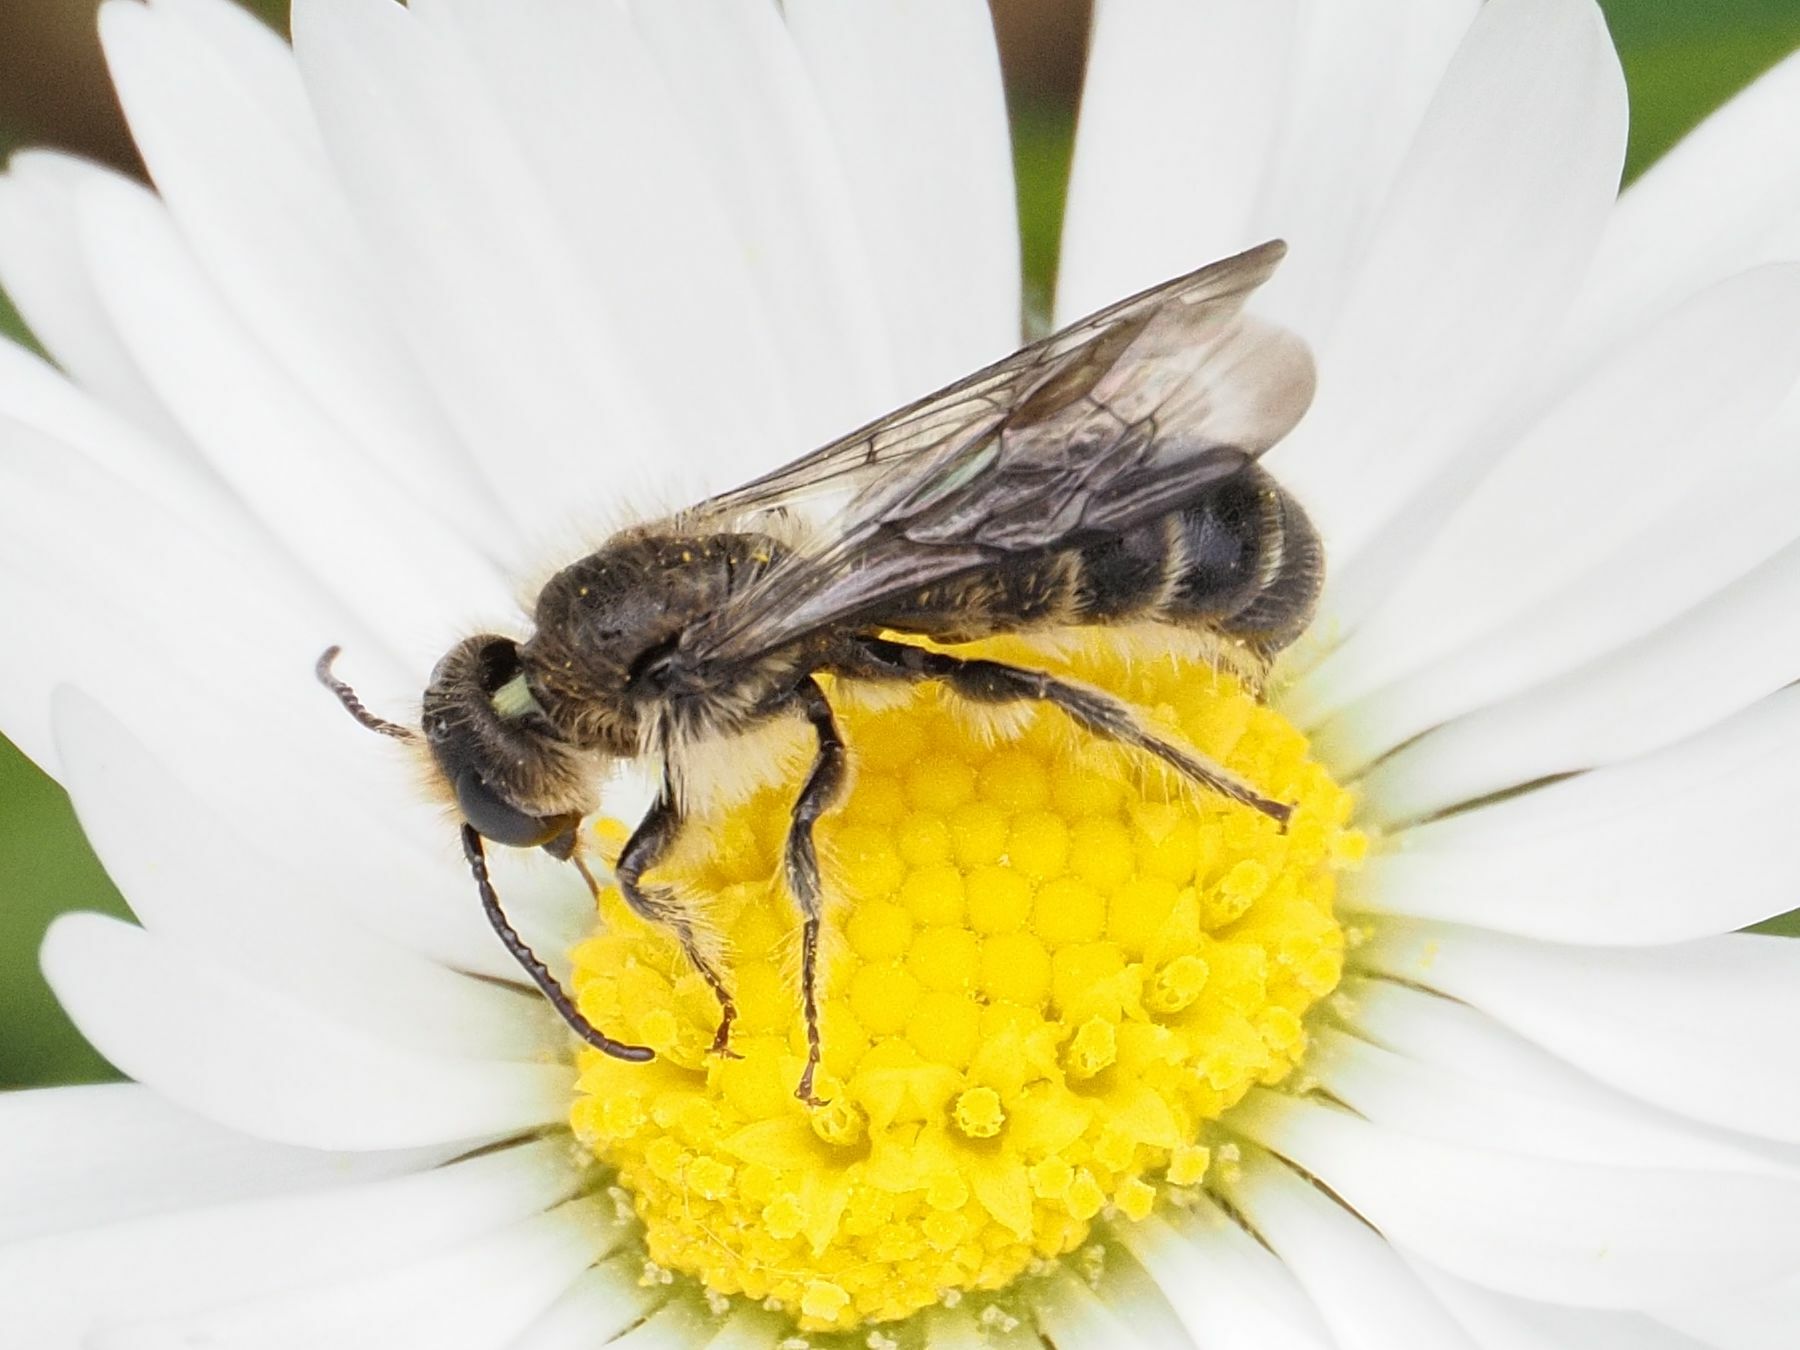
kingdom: Animalia
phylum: Arthropoda
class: Insecta
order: Hymenoptera
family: Megachilidae
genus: Chelostoma
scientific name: Chelostoma florisomne
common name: Sleepy carpenter bee
